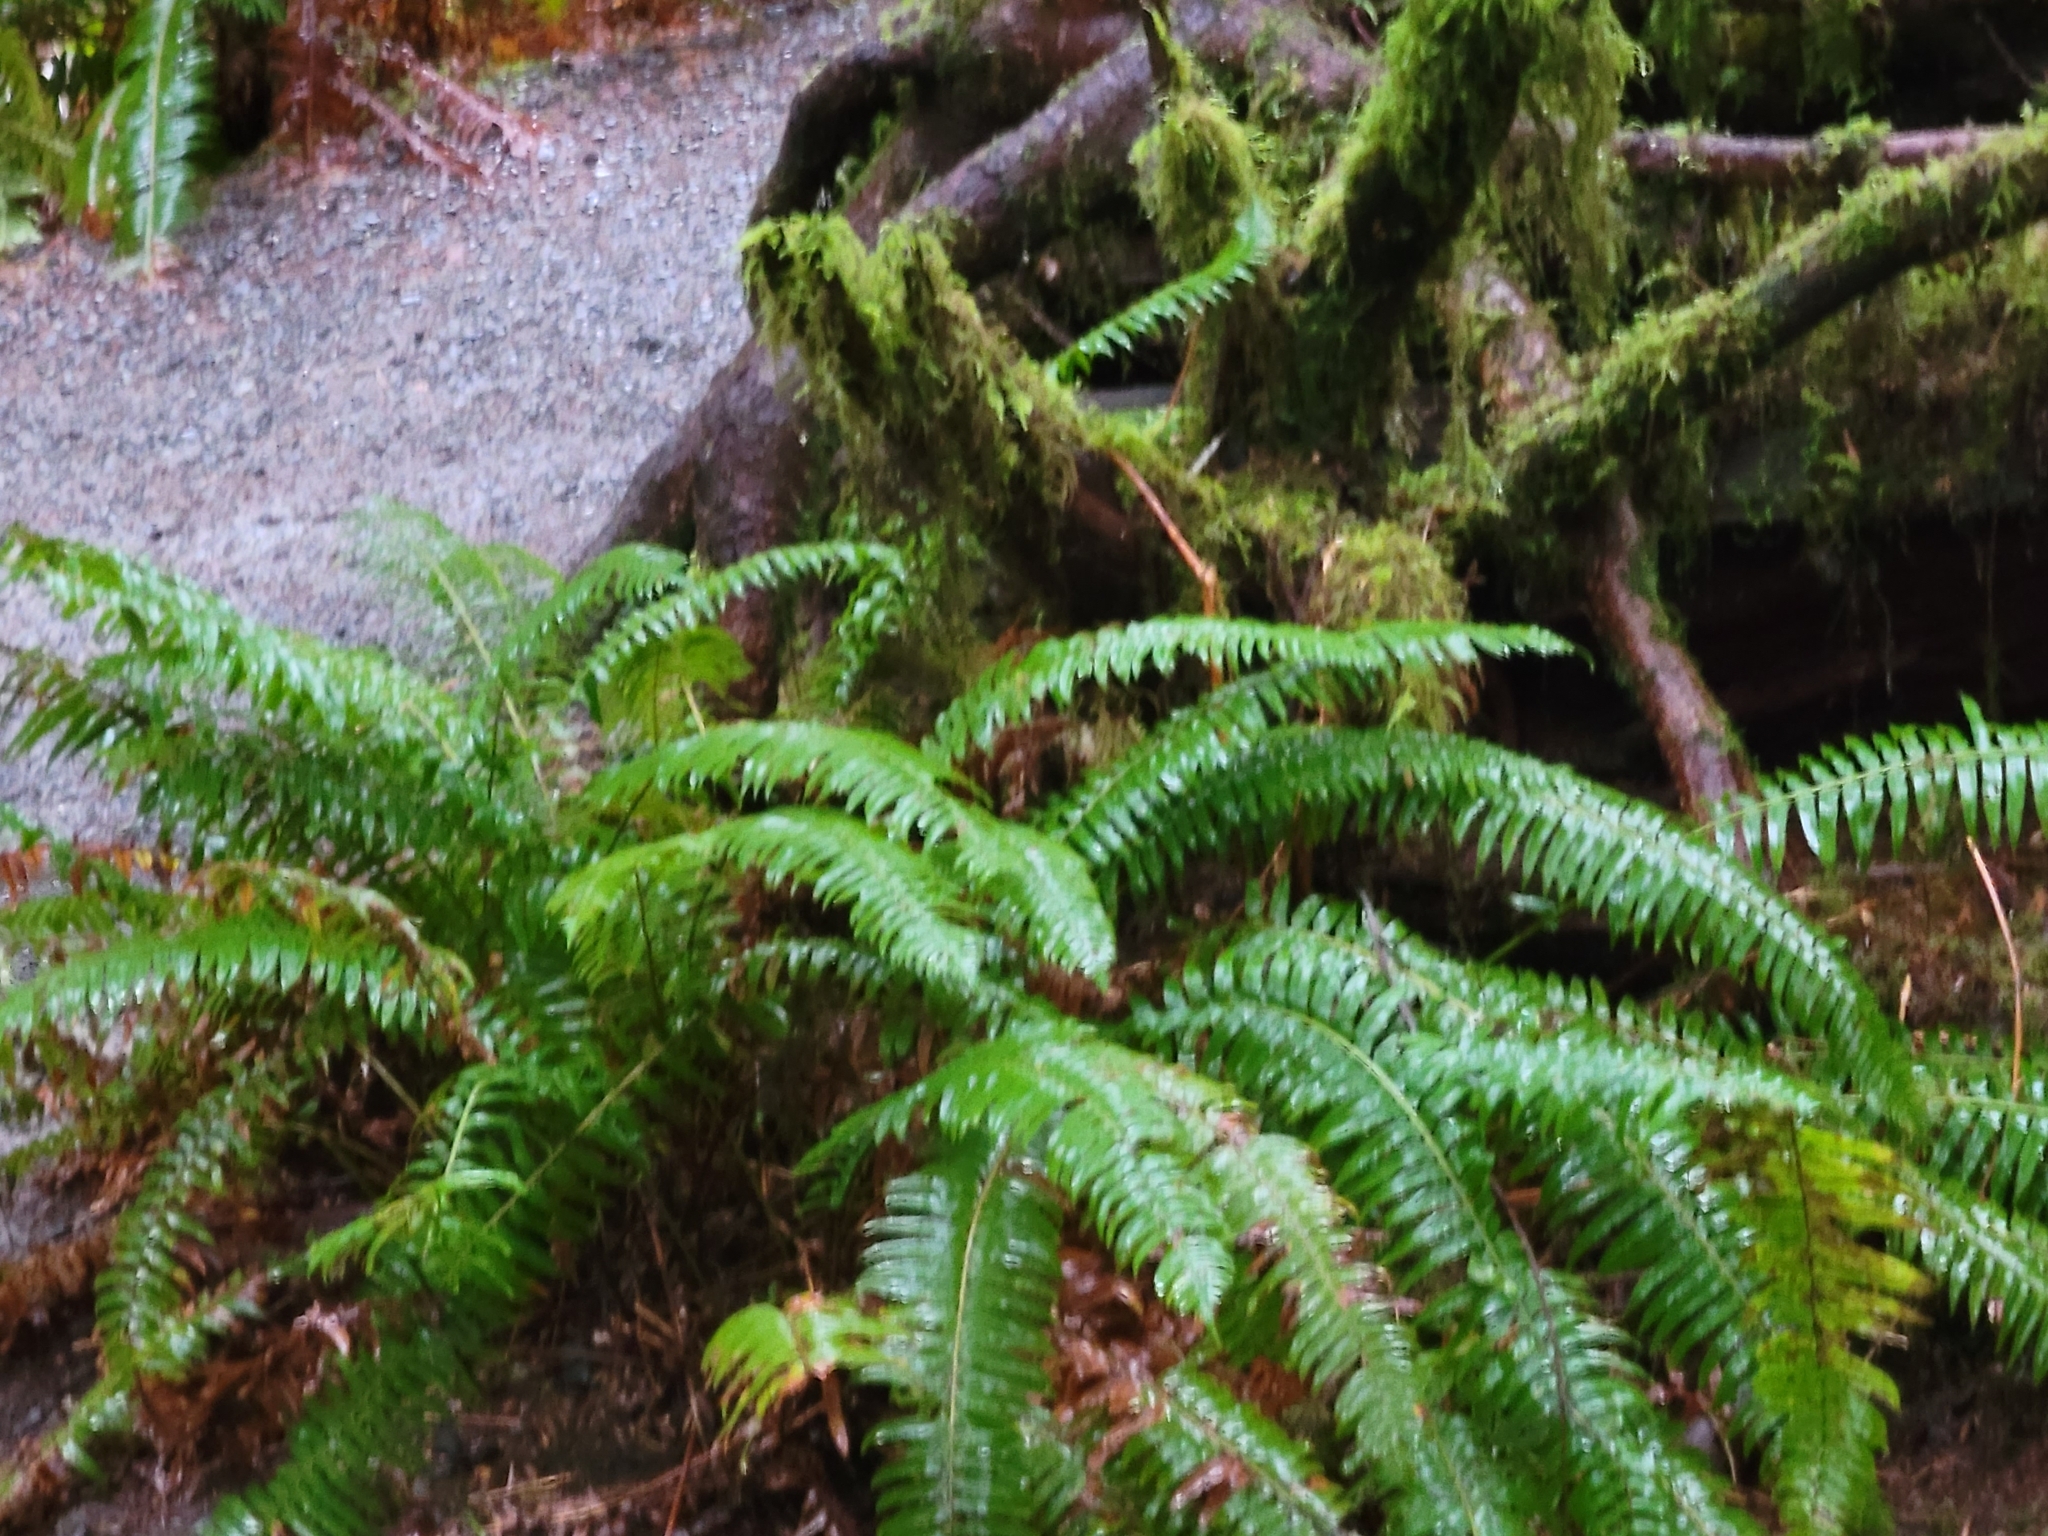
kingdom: Plantae
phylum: Tracheophyta
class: Polypodiopsida
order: Polypodiales
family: Dryopteridaceae
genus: Polystichum
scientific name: Polystichum munitum
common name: Western sword-fern
